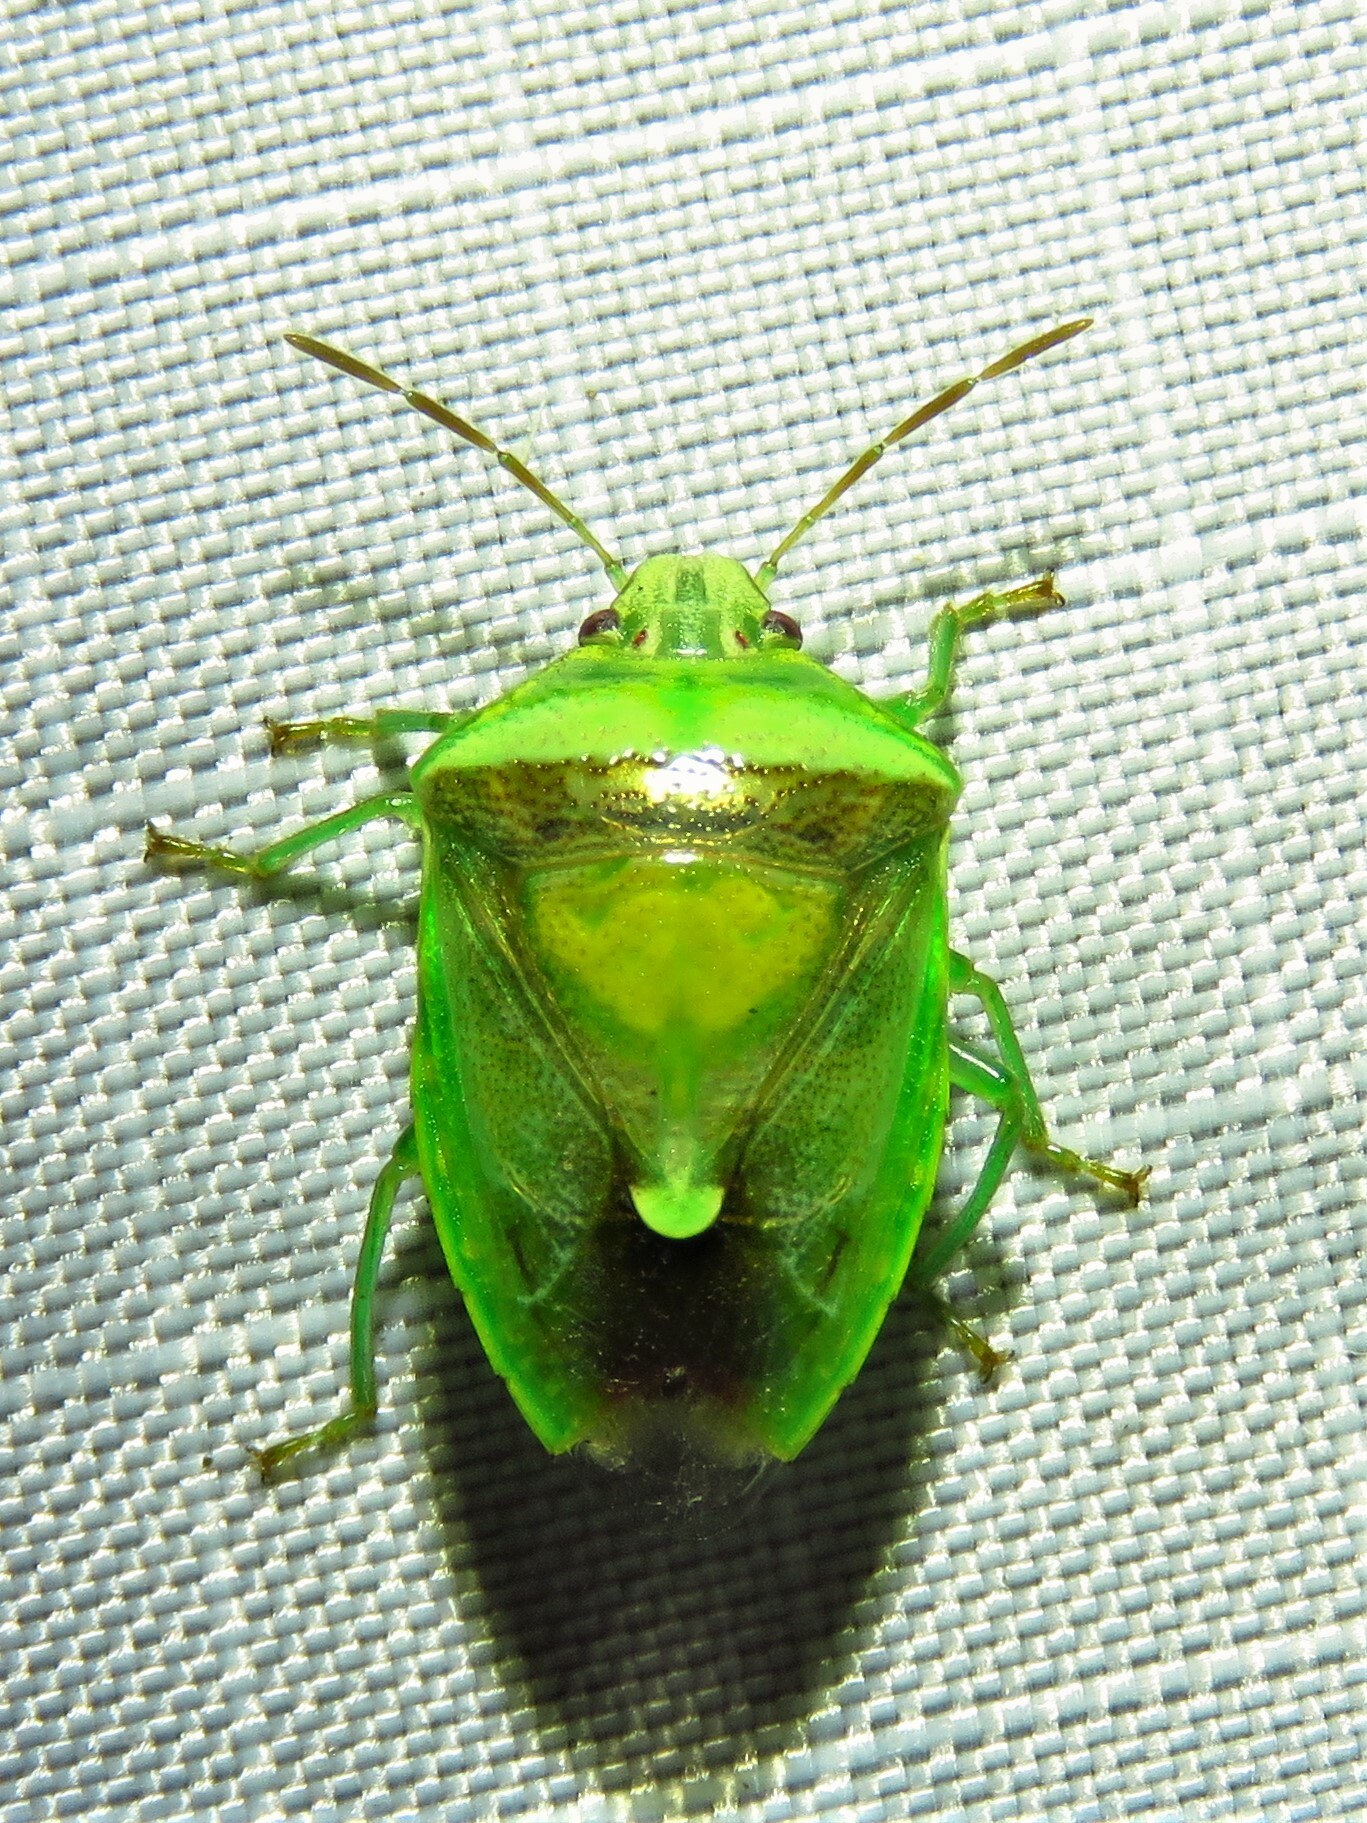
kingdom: Animalia
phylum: Arthropoda
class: Insecta
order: Hemiptera
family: Pentatomidae
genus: Banasa
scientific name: Banasa dimidiata
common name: Green burgundy stink bug
